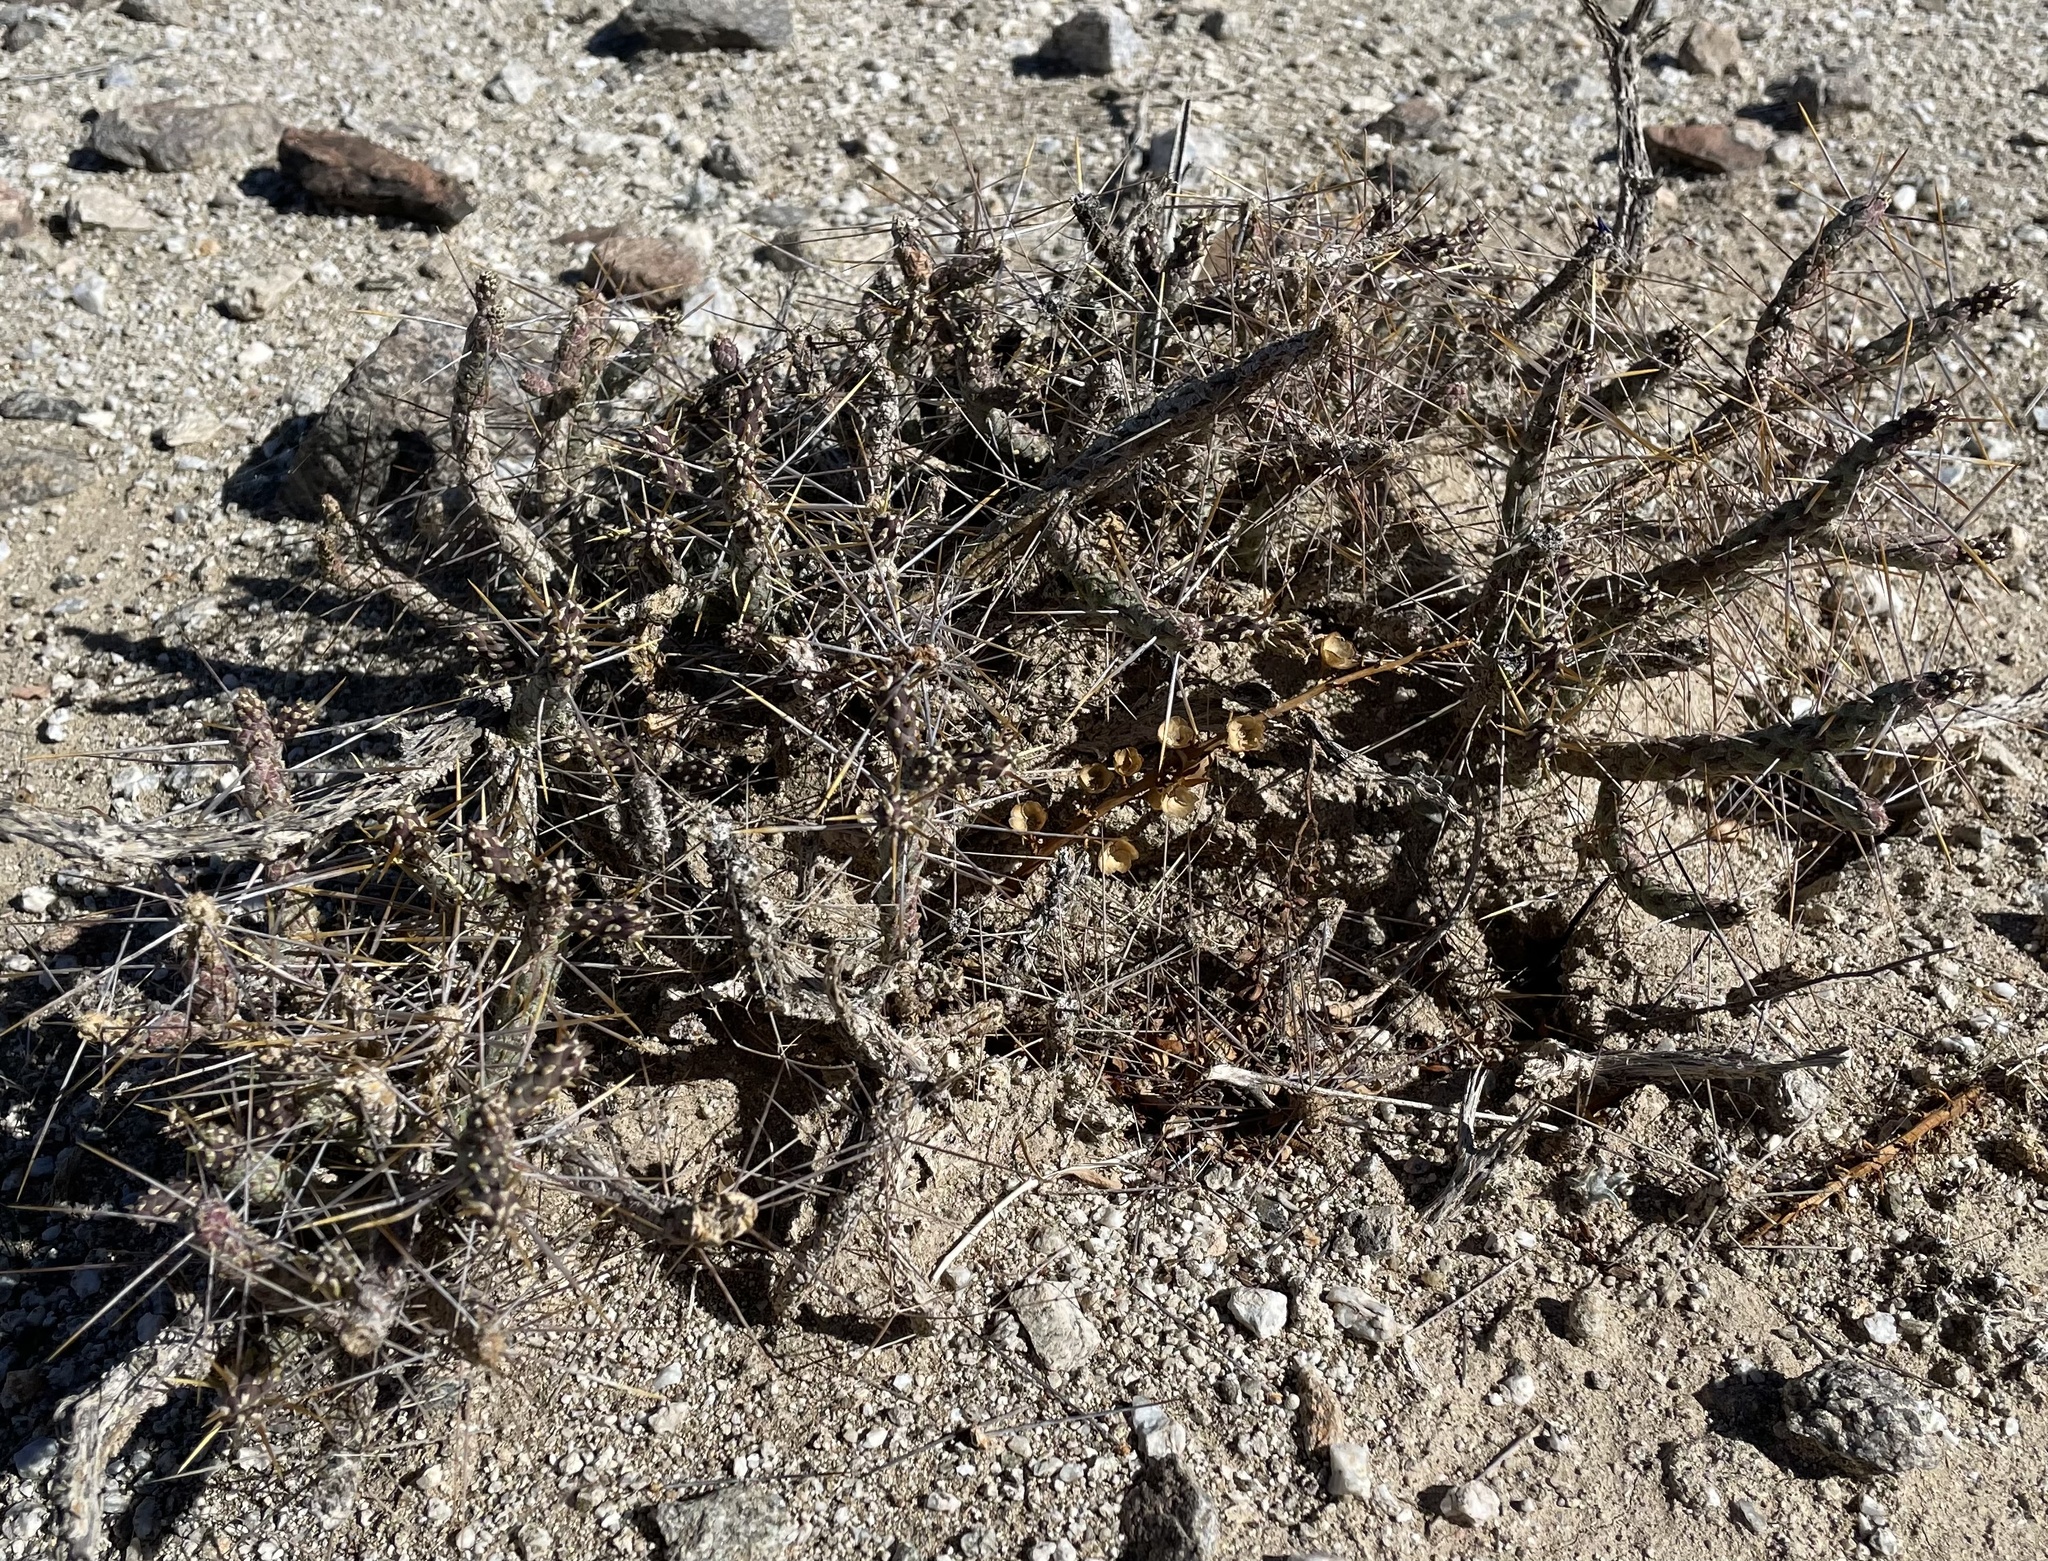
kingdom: Plantae
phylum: Tracheophyta
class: Magnoliopsida
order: Caryophyllales
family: Cactaceae
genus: Cylindropuntia
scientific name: Cylindropuntia ramosissima
